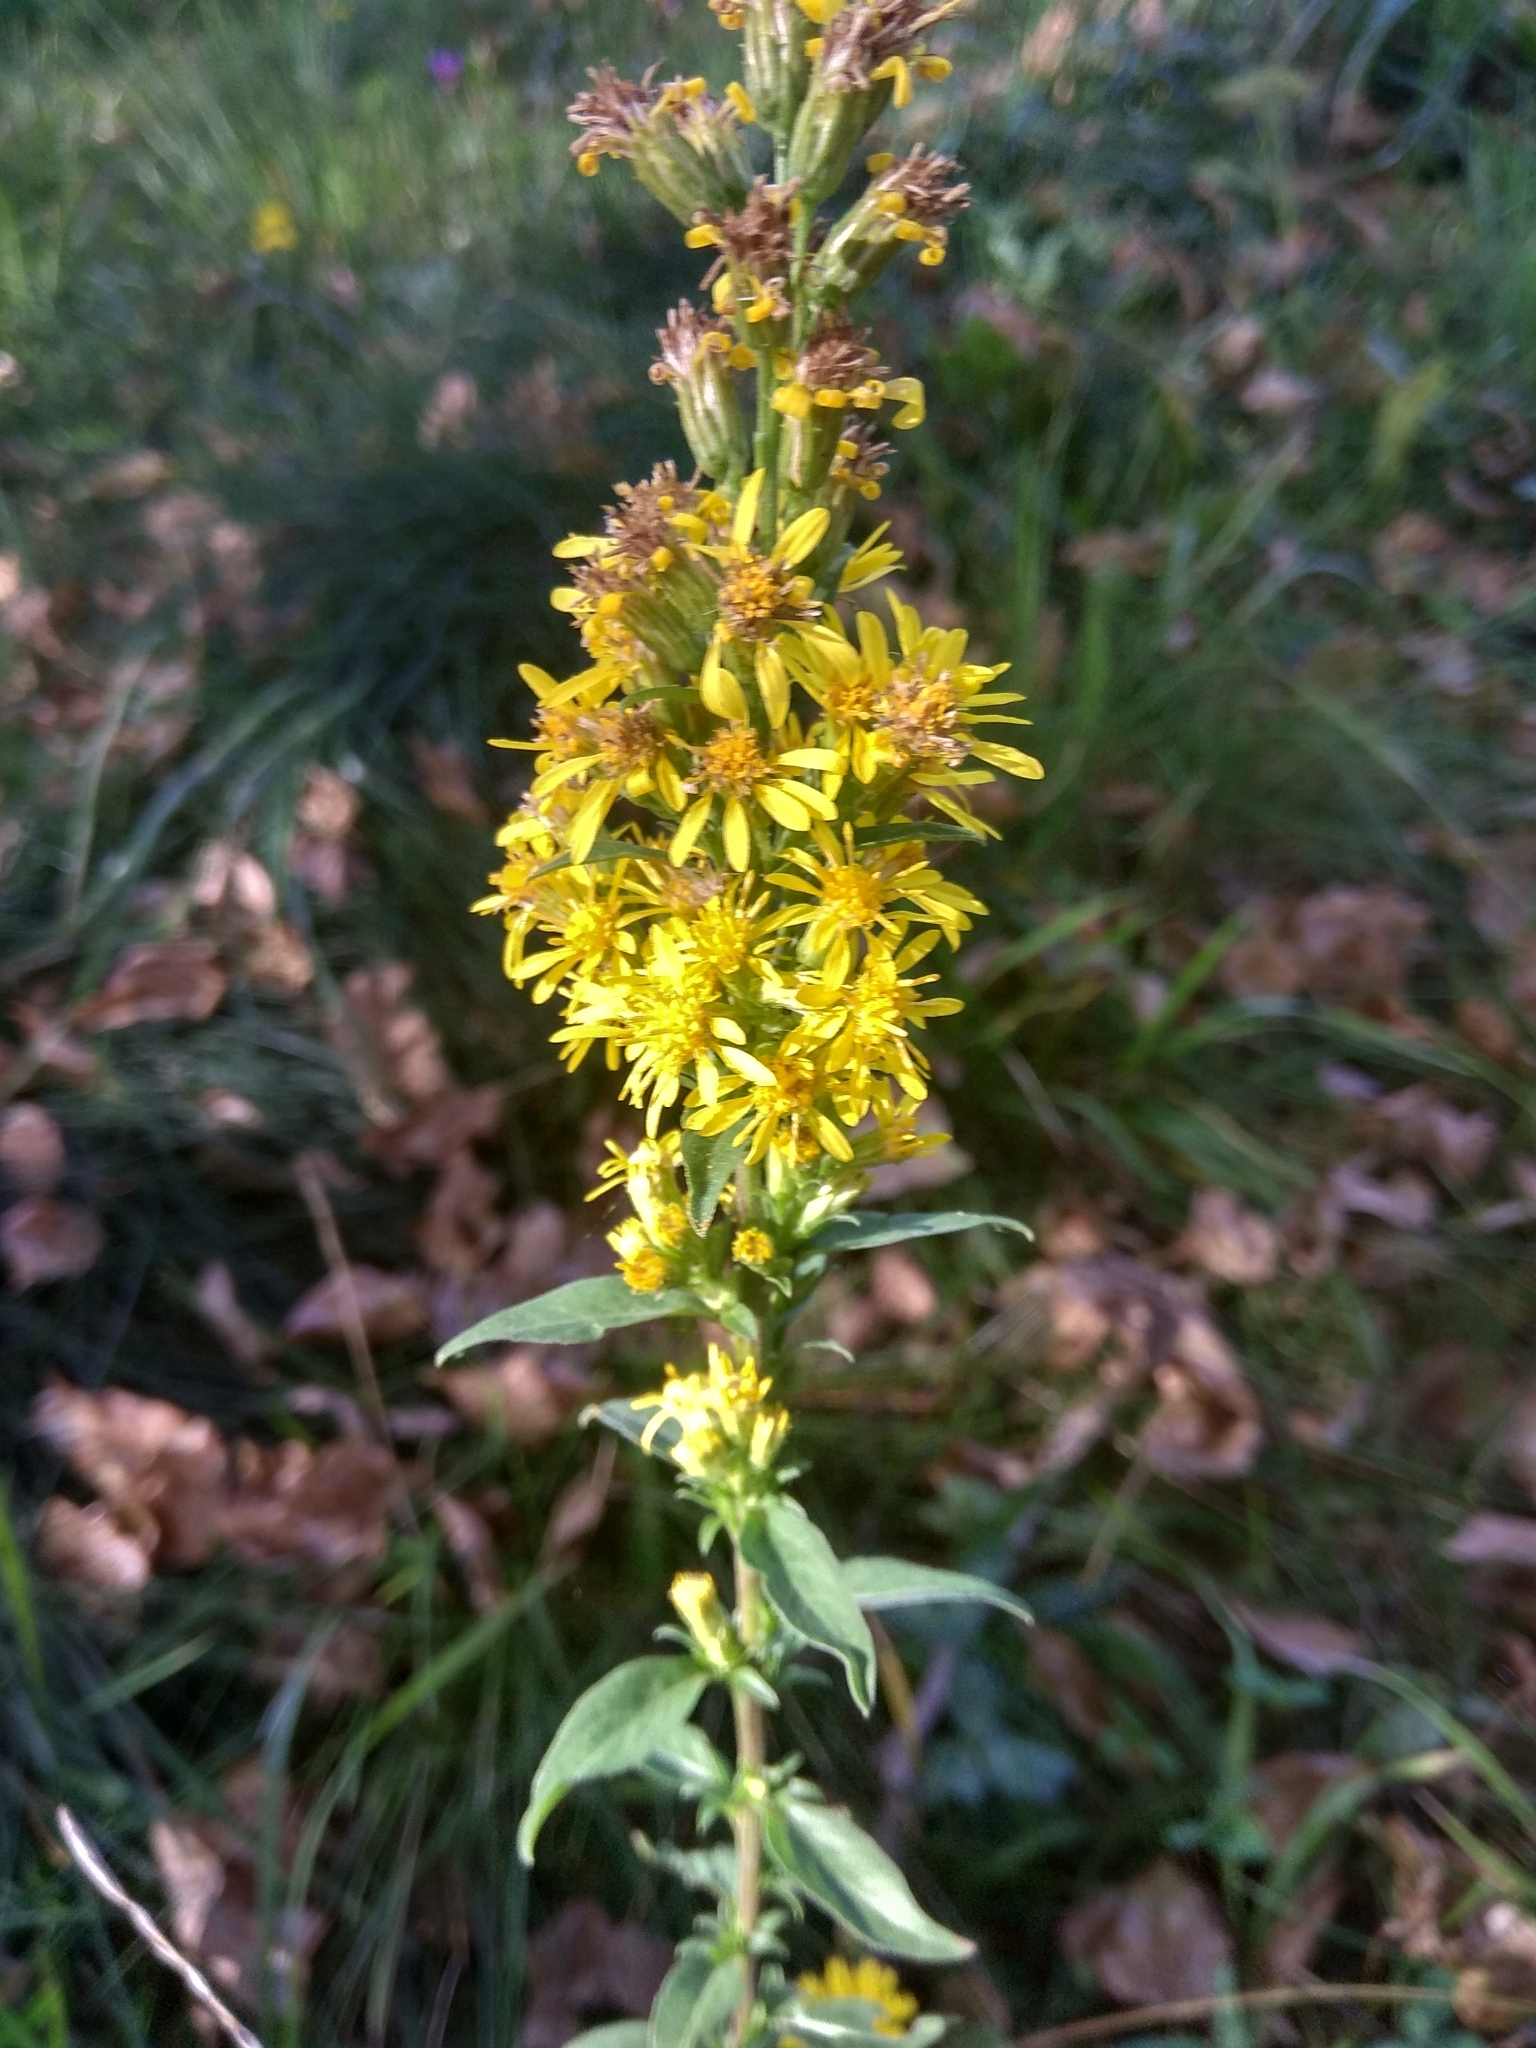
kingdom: Plantae
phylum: Tracheophyta
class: Magnoliopsida
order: Asterales
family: Asteraceae
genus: Solidago
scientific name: Solidago virgaurea
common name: Goldenrod
